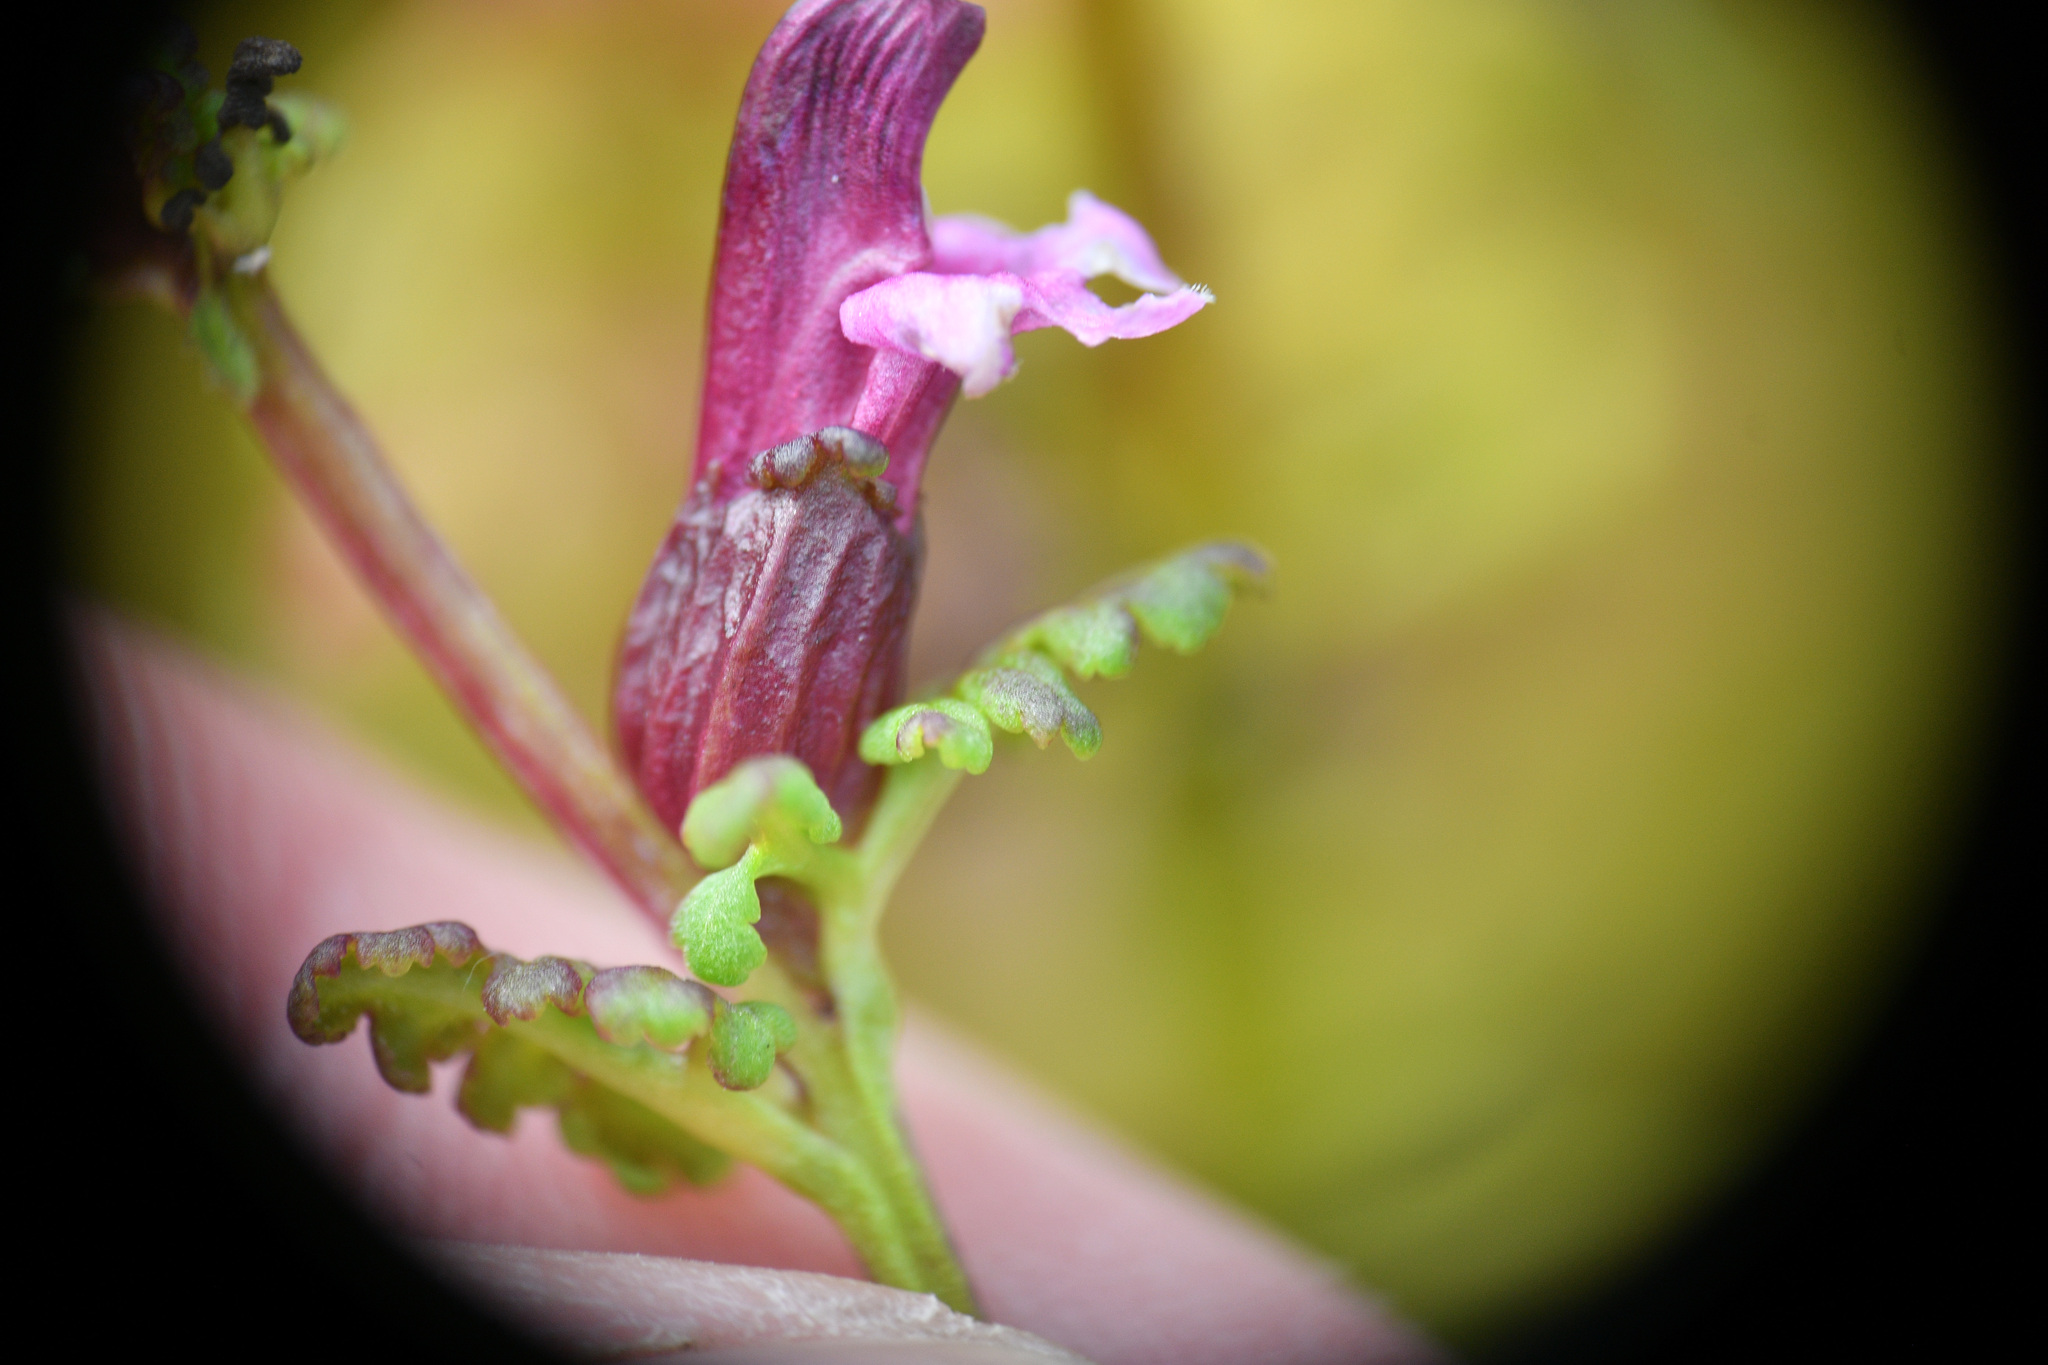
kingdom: Plantae
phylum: Tracheophyta
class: Magnoliopsida
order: Lamiales
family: Orobanchaceae
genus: Pedicularis
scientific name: Pedicularis parviflora
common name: Muskeg lousewort
